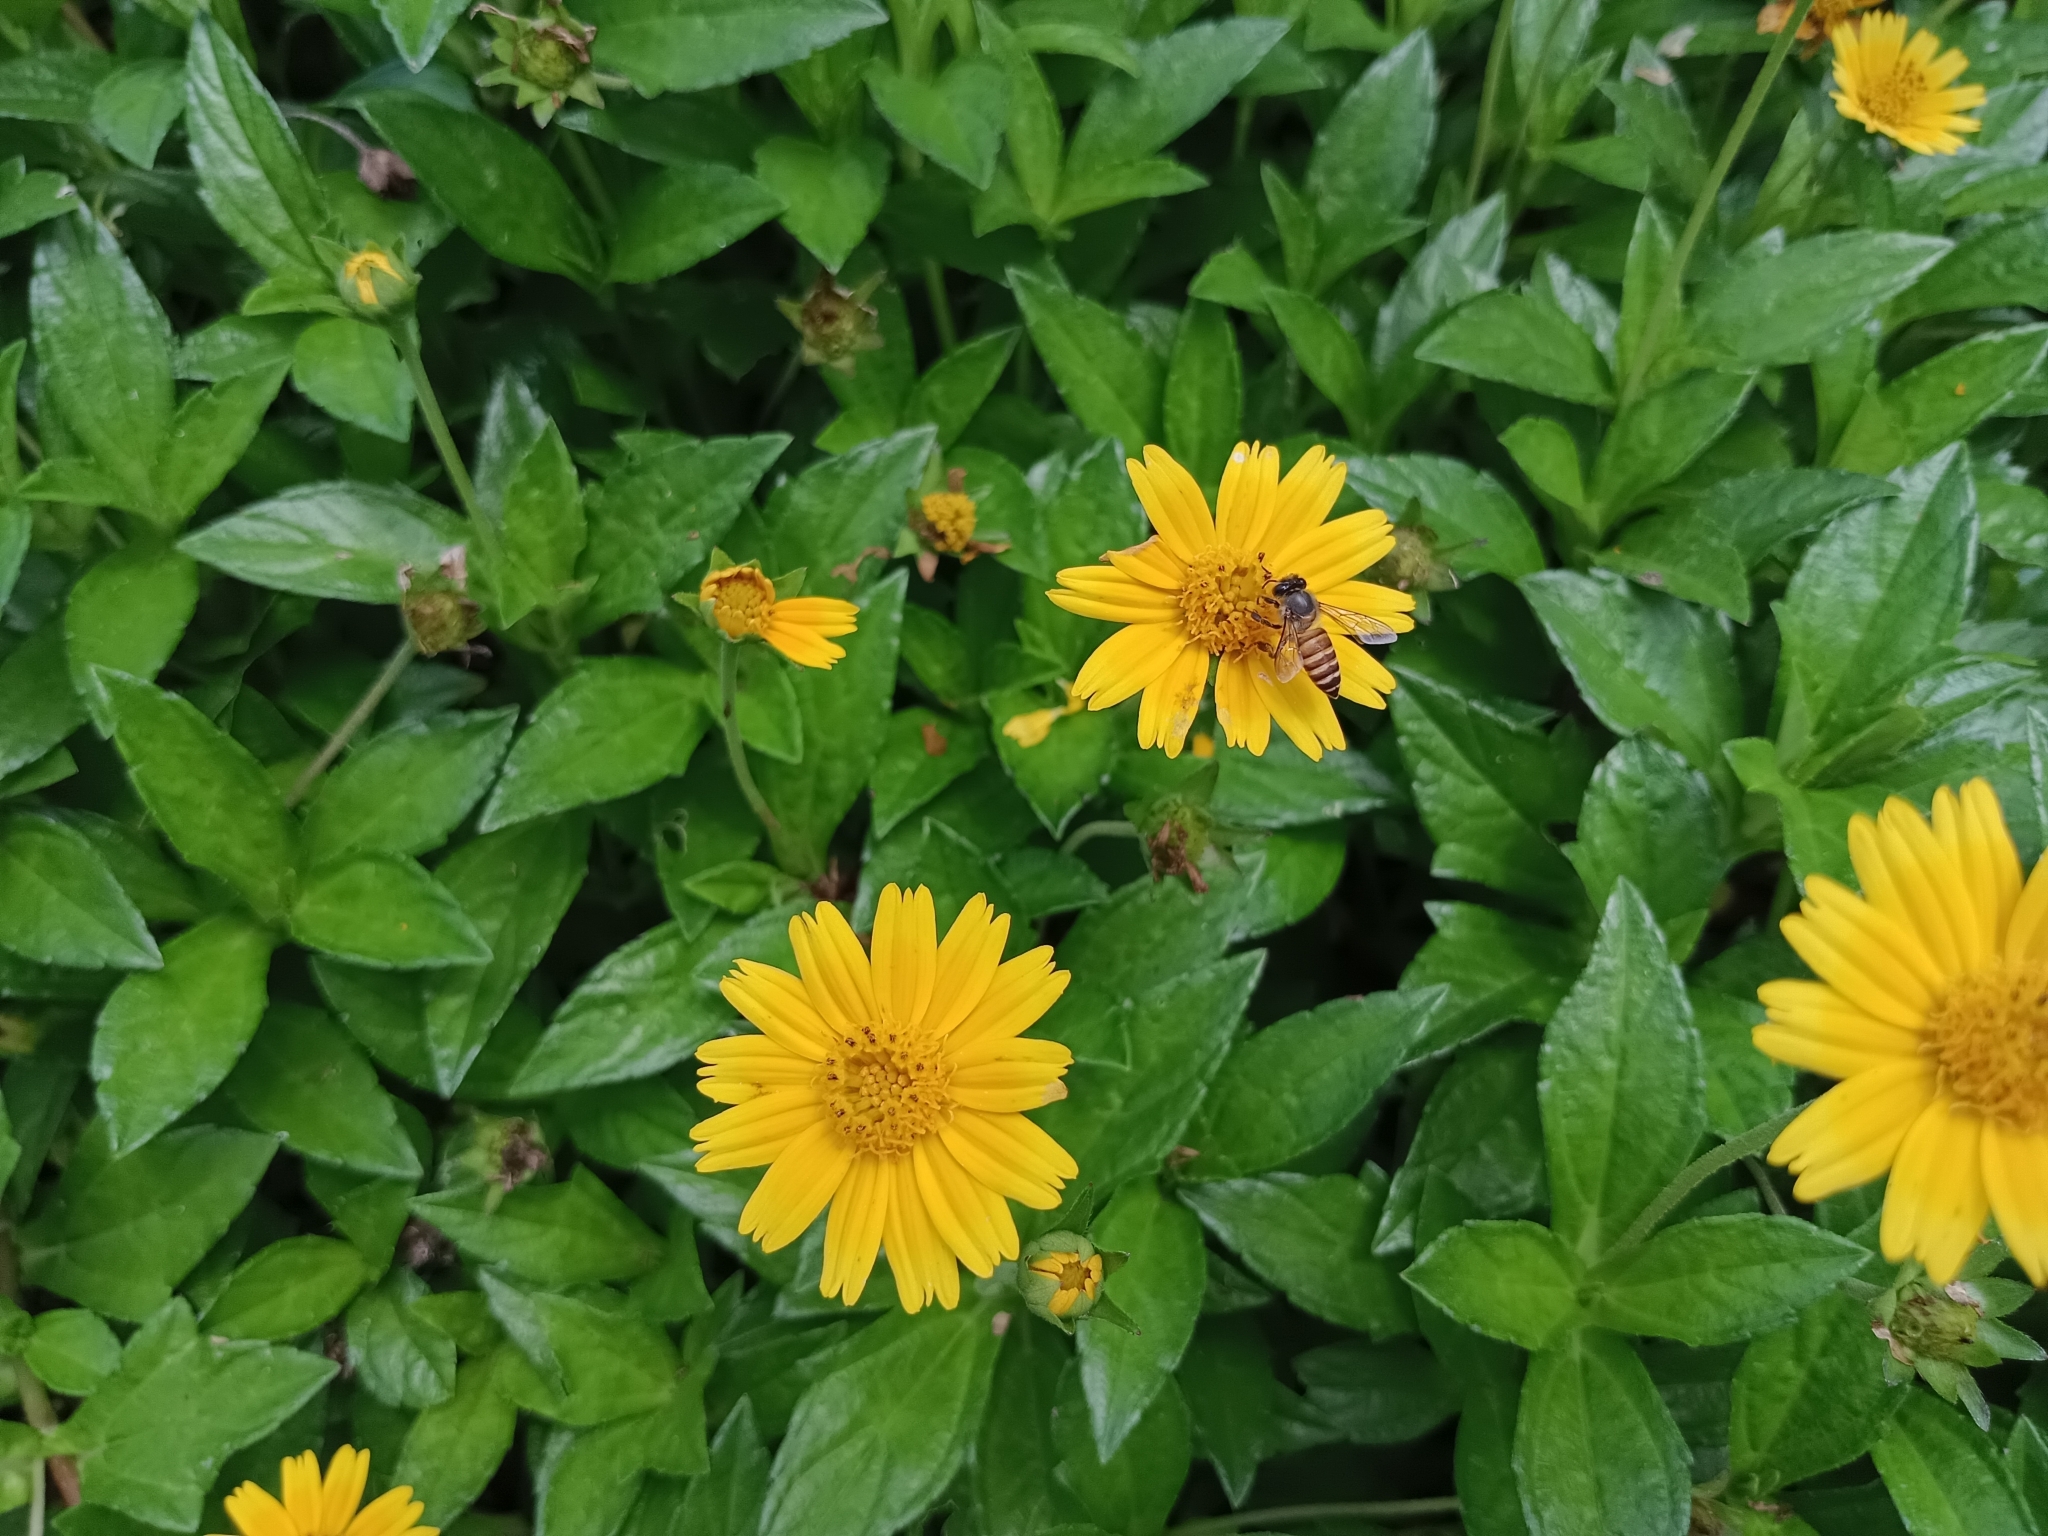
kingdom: Plantae
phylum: Tracheophyta
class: Magnoliopsida
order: Asterales
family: Asteraceae
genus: Sphagneticola
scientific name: Sphagneticola trilobata
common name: Bay biscayne creeping-oxeye
